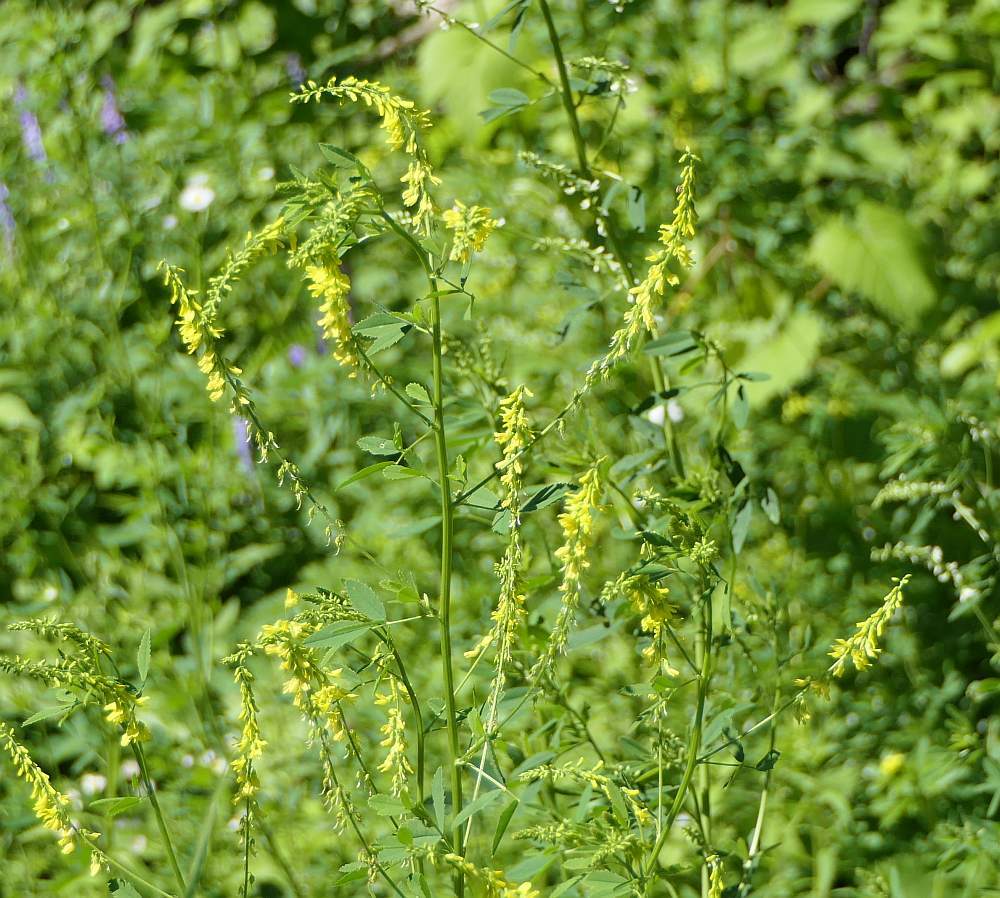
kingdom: Plantae
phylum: Tracheophyta
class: Magnoliopsida
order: Fabales
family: Fabaceae
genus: Melilotus
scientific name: Melilotus officinalis
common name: Sweetclover
